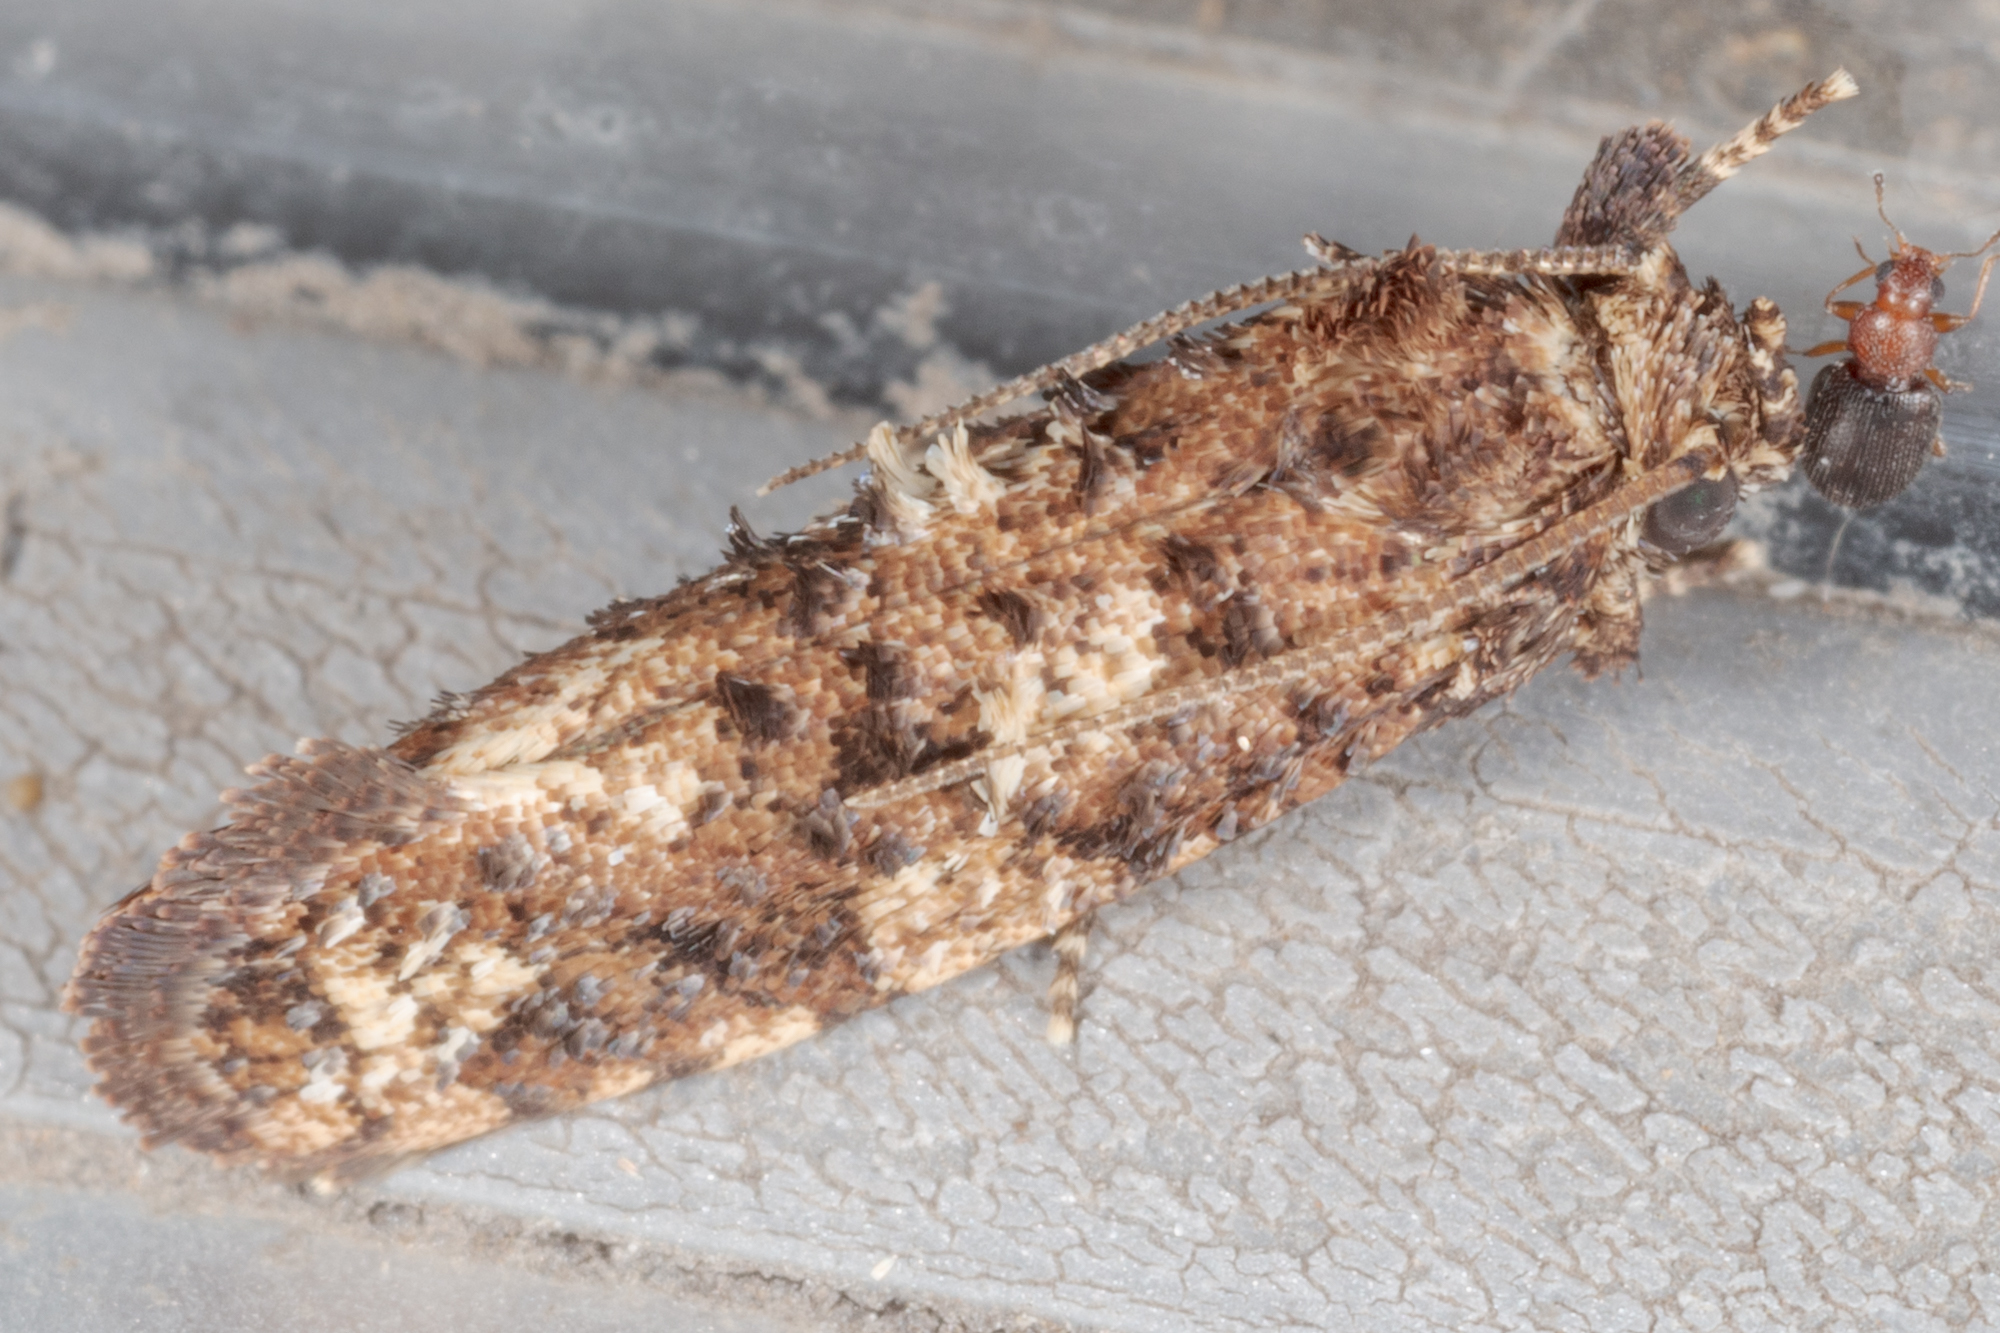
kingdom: Animalia
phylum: Arthropoda
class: Insecta
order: Lepidoptera
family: Tineidae
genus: Acrolophus
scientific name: Acrolophus cressoni
